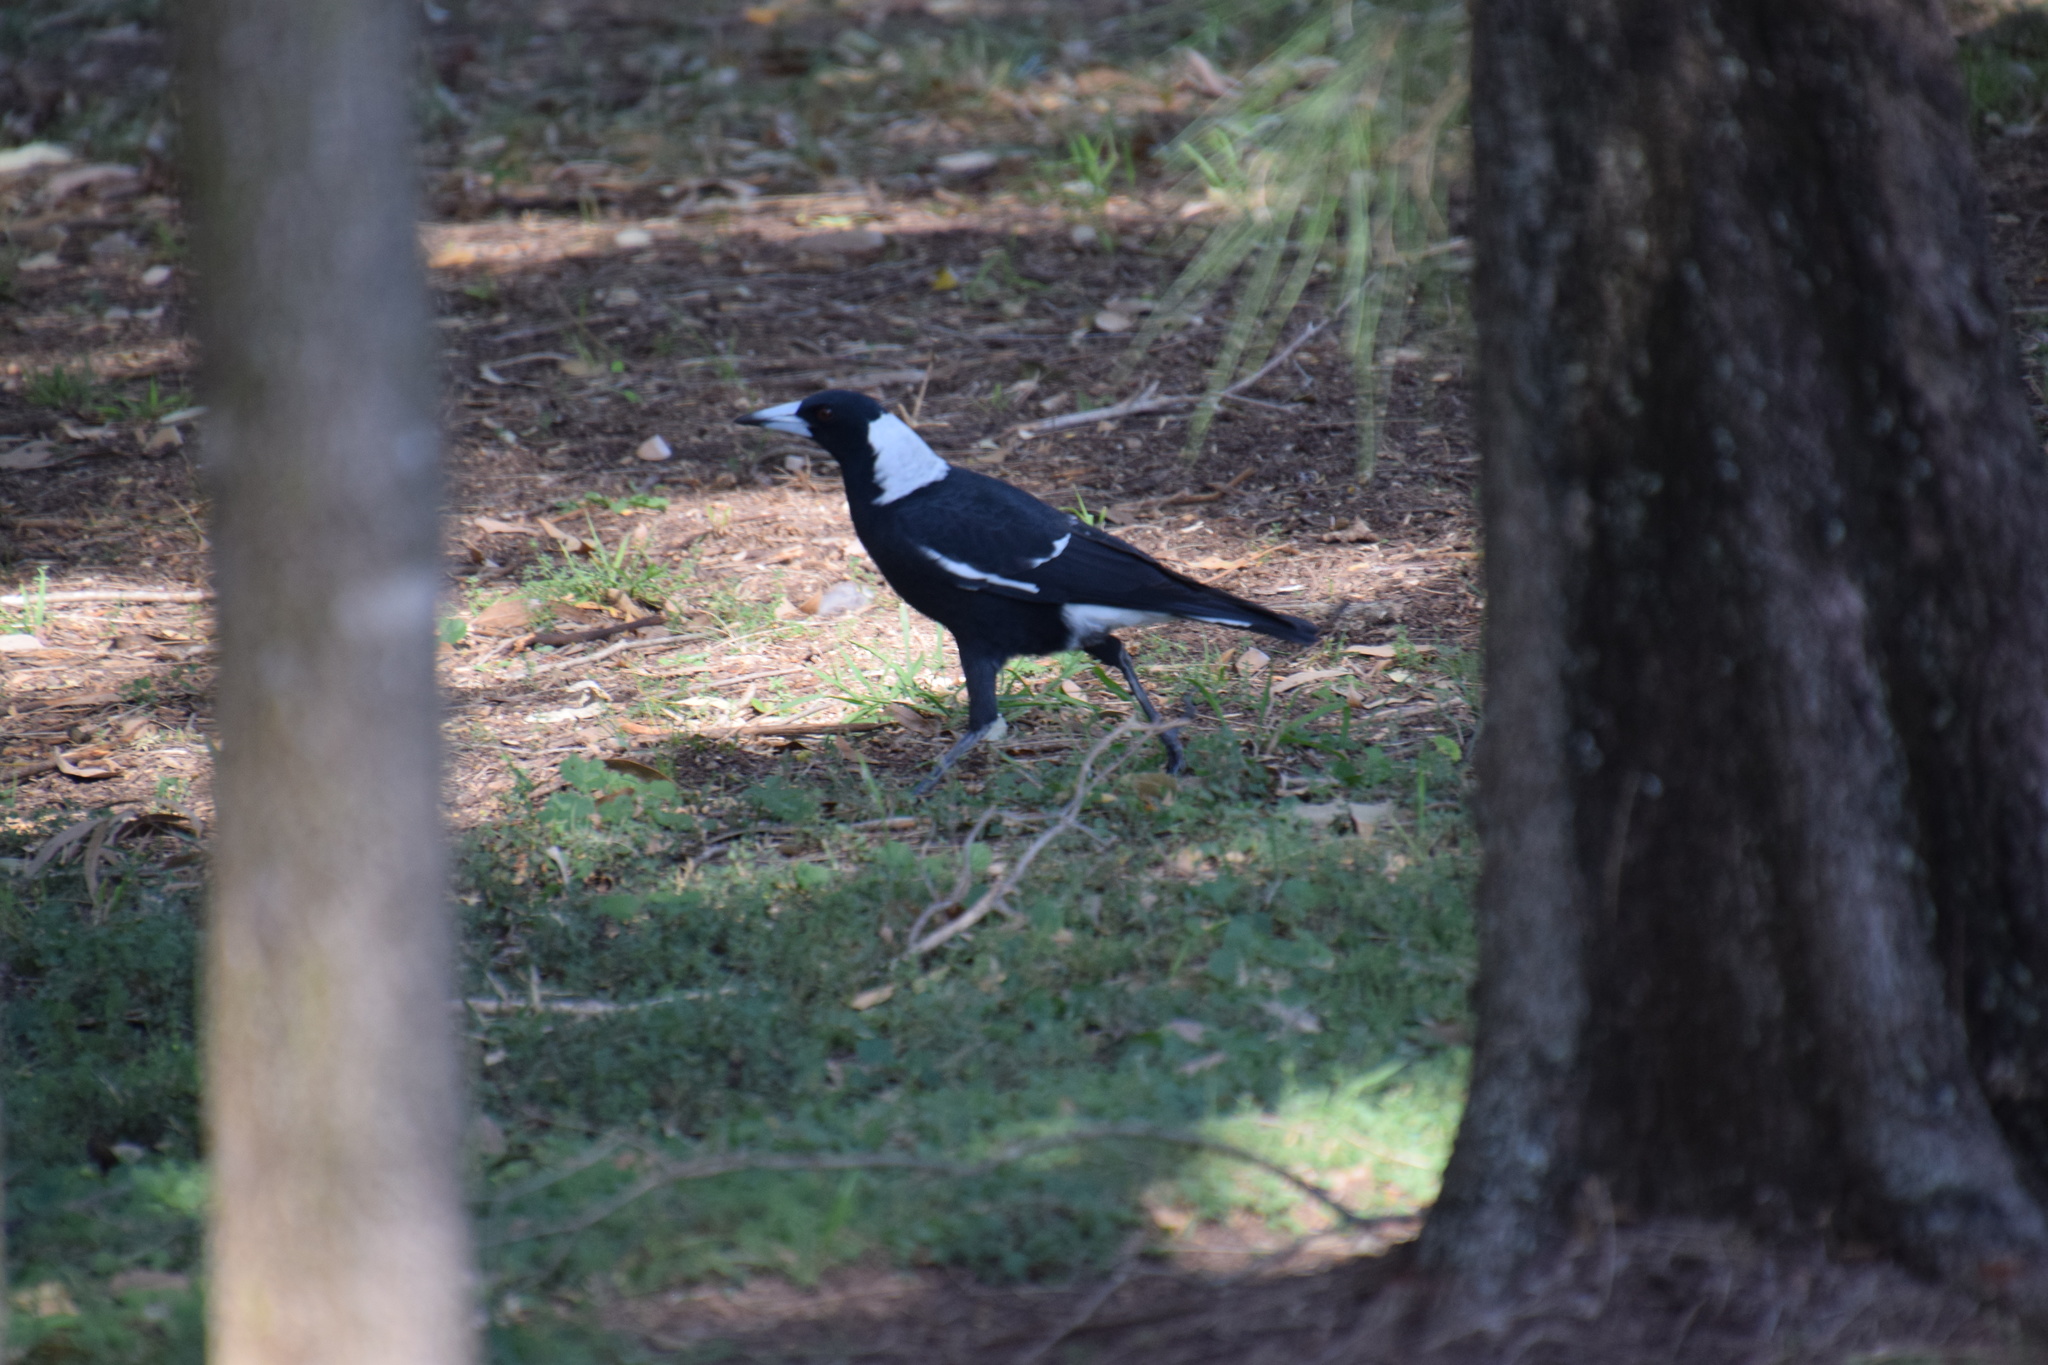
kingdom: Animalia
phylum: Chordata
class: Aves
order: Passeriformes
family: Cracticidae
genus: Gymnorhina
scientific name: Gymnorhina tibicen
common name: Australian magpie
